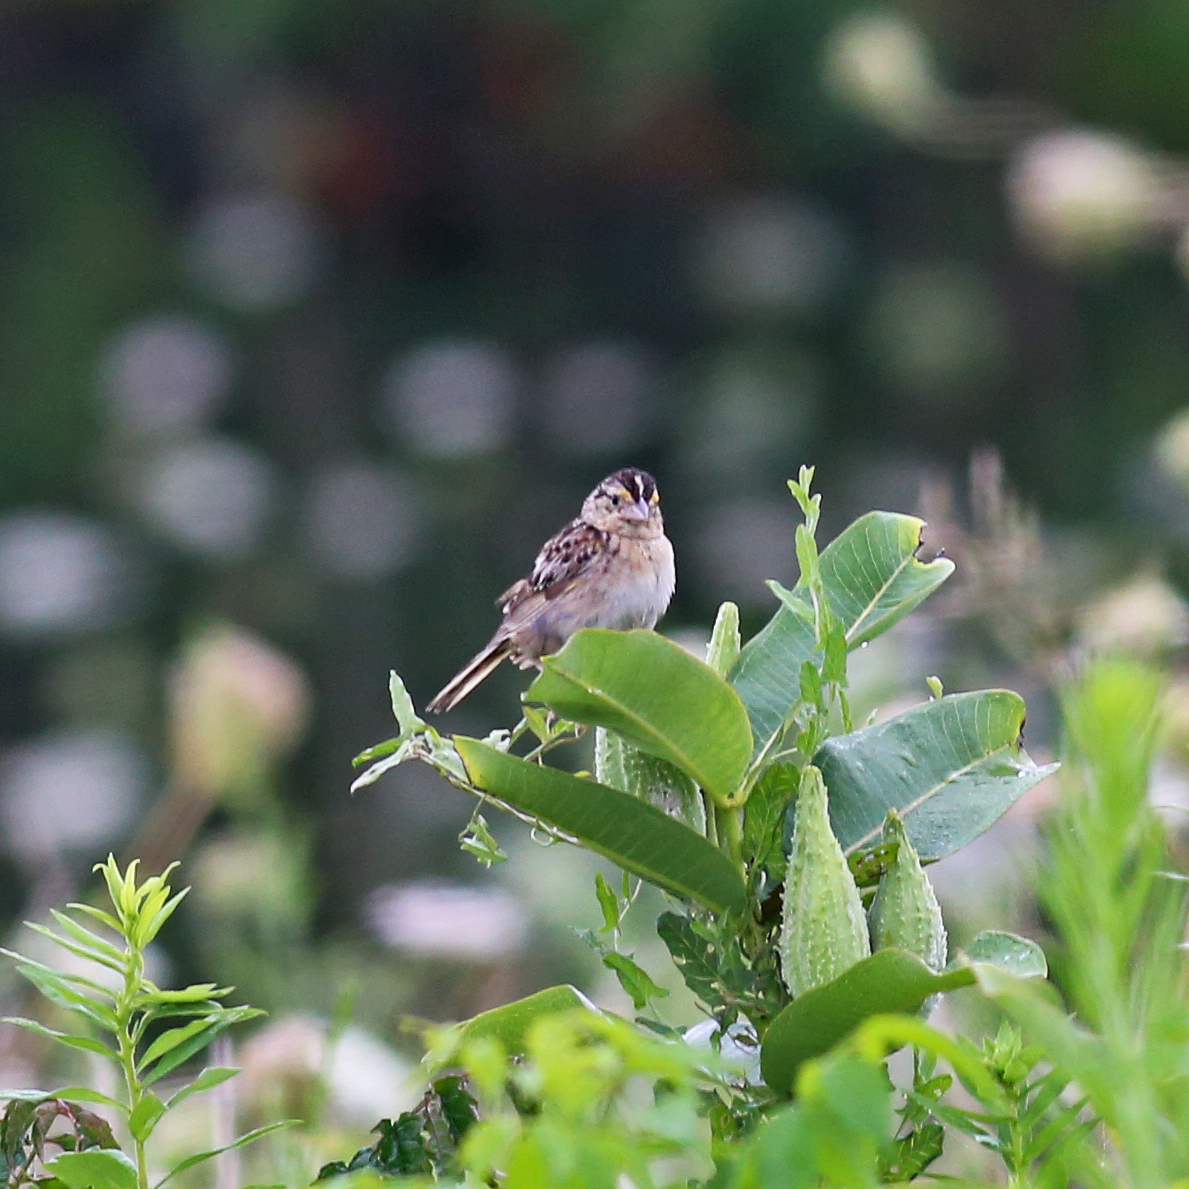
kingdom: Animalia
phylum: Chordata
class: Aves
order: Passeriformes
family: Passerellidae
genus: Ammodramus
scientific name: Ammodramus savannarum
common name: Grasshopper sparrow
